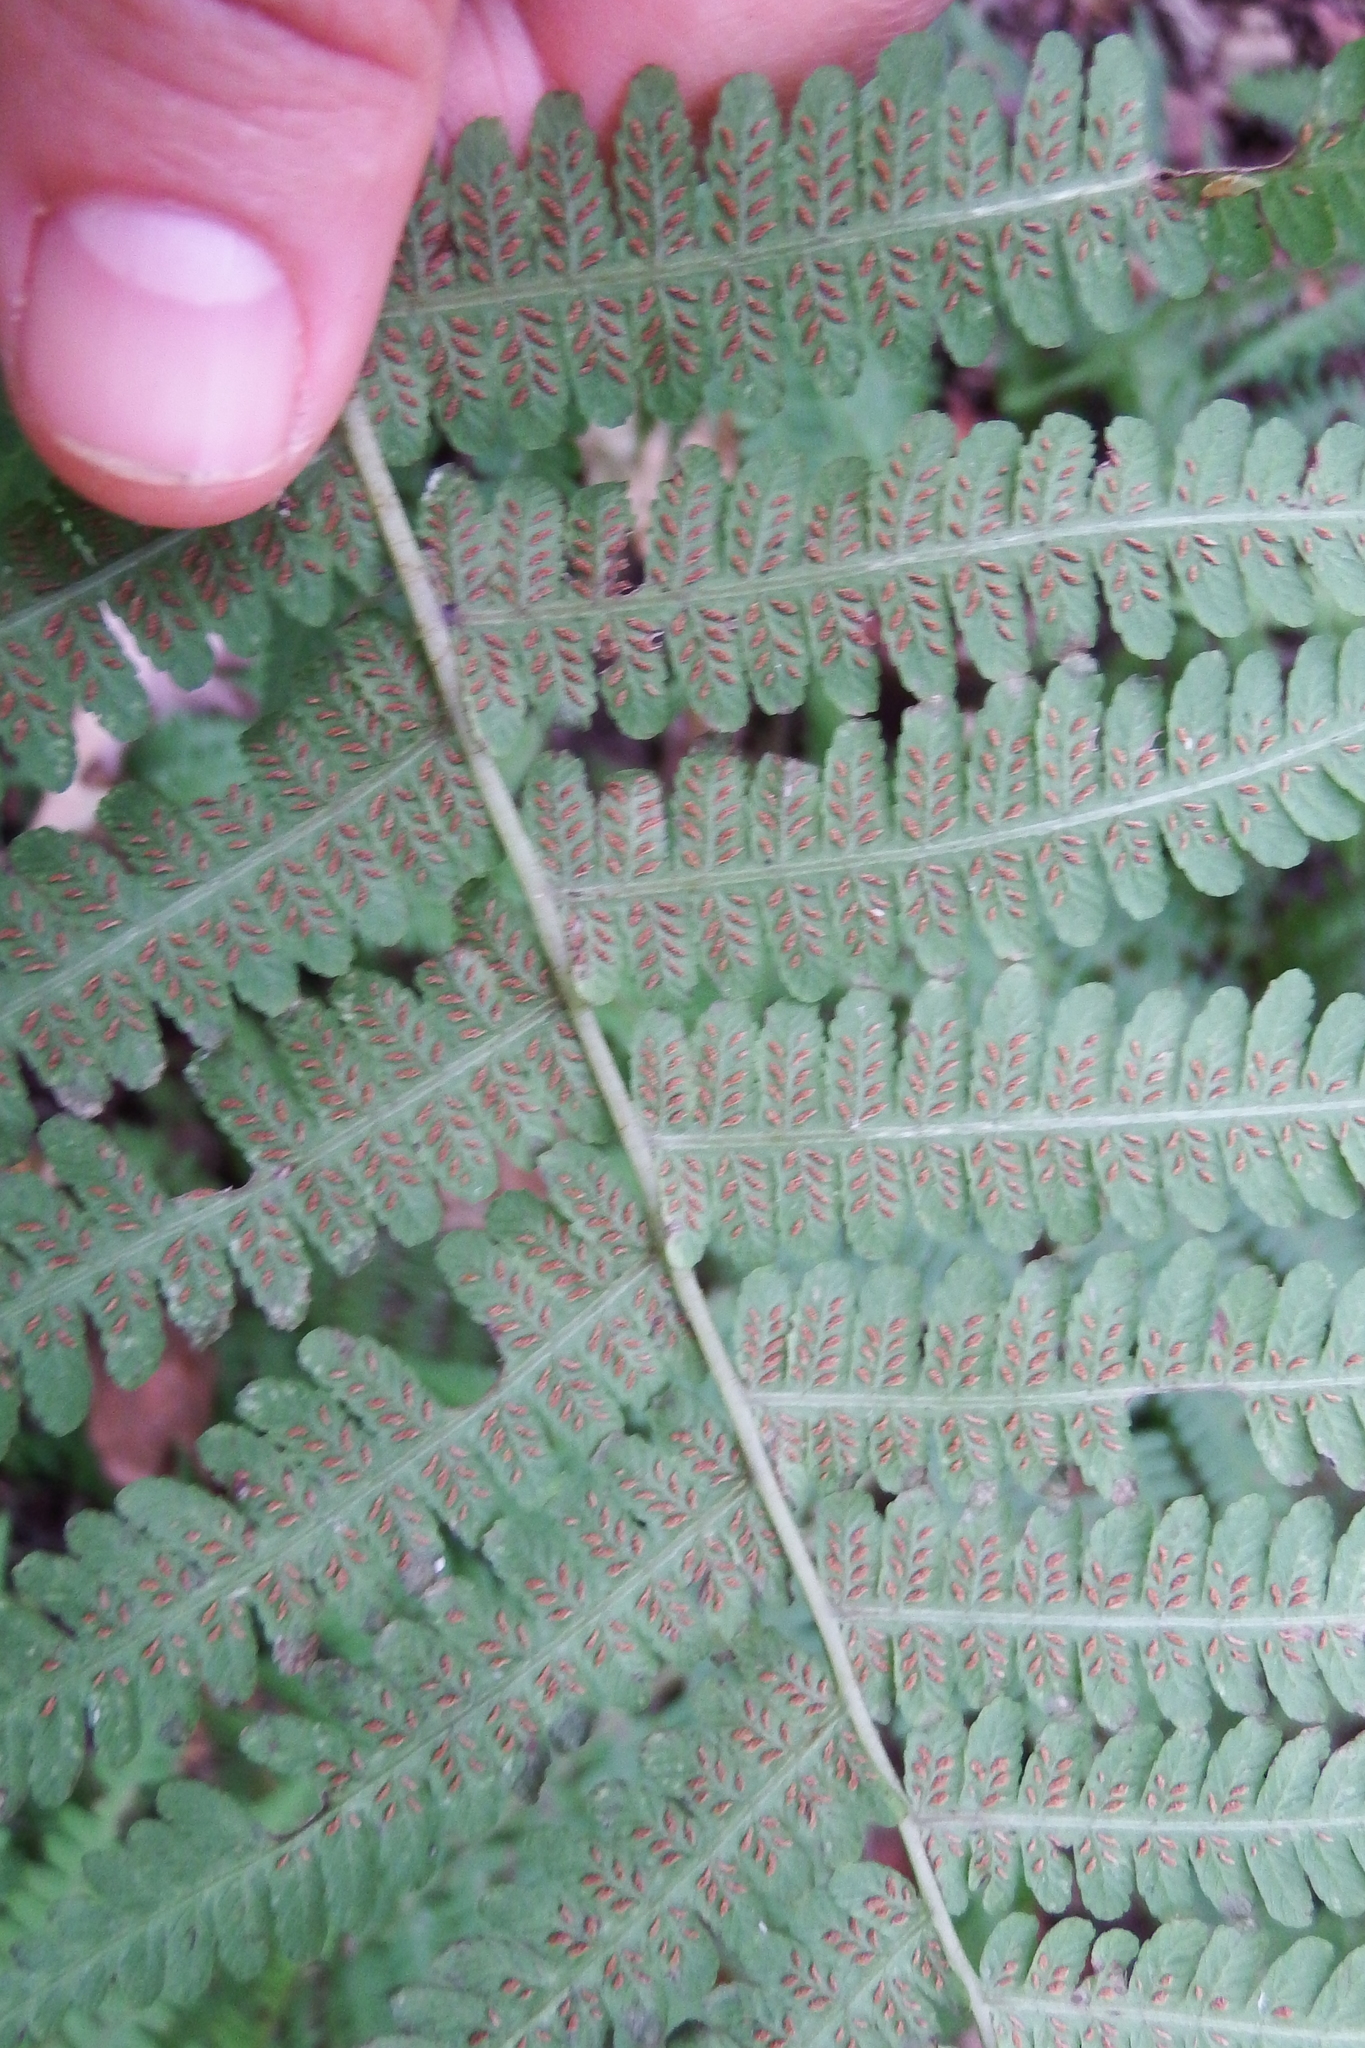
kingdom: Plantae
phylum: Tracheophyta
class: Polypodiopsida
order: Polypodiales
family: Athyriaceae
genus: Deparia
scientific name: Deparia acrostichoides
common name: Silver false spleenwort
